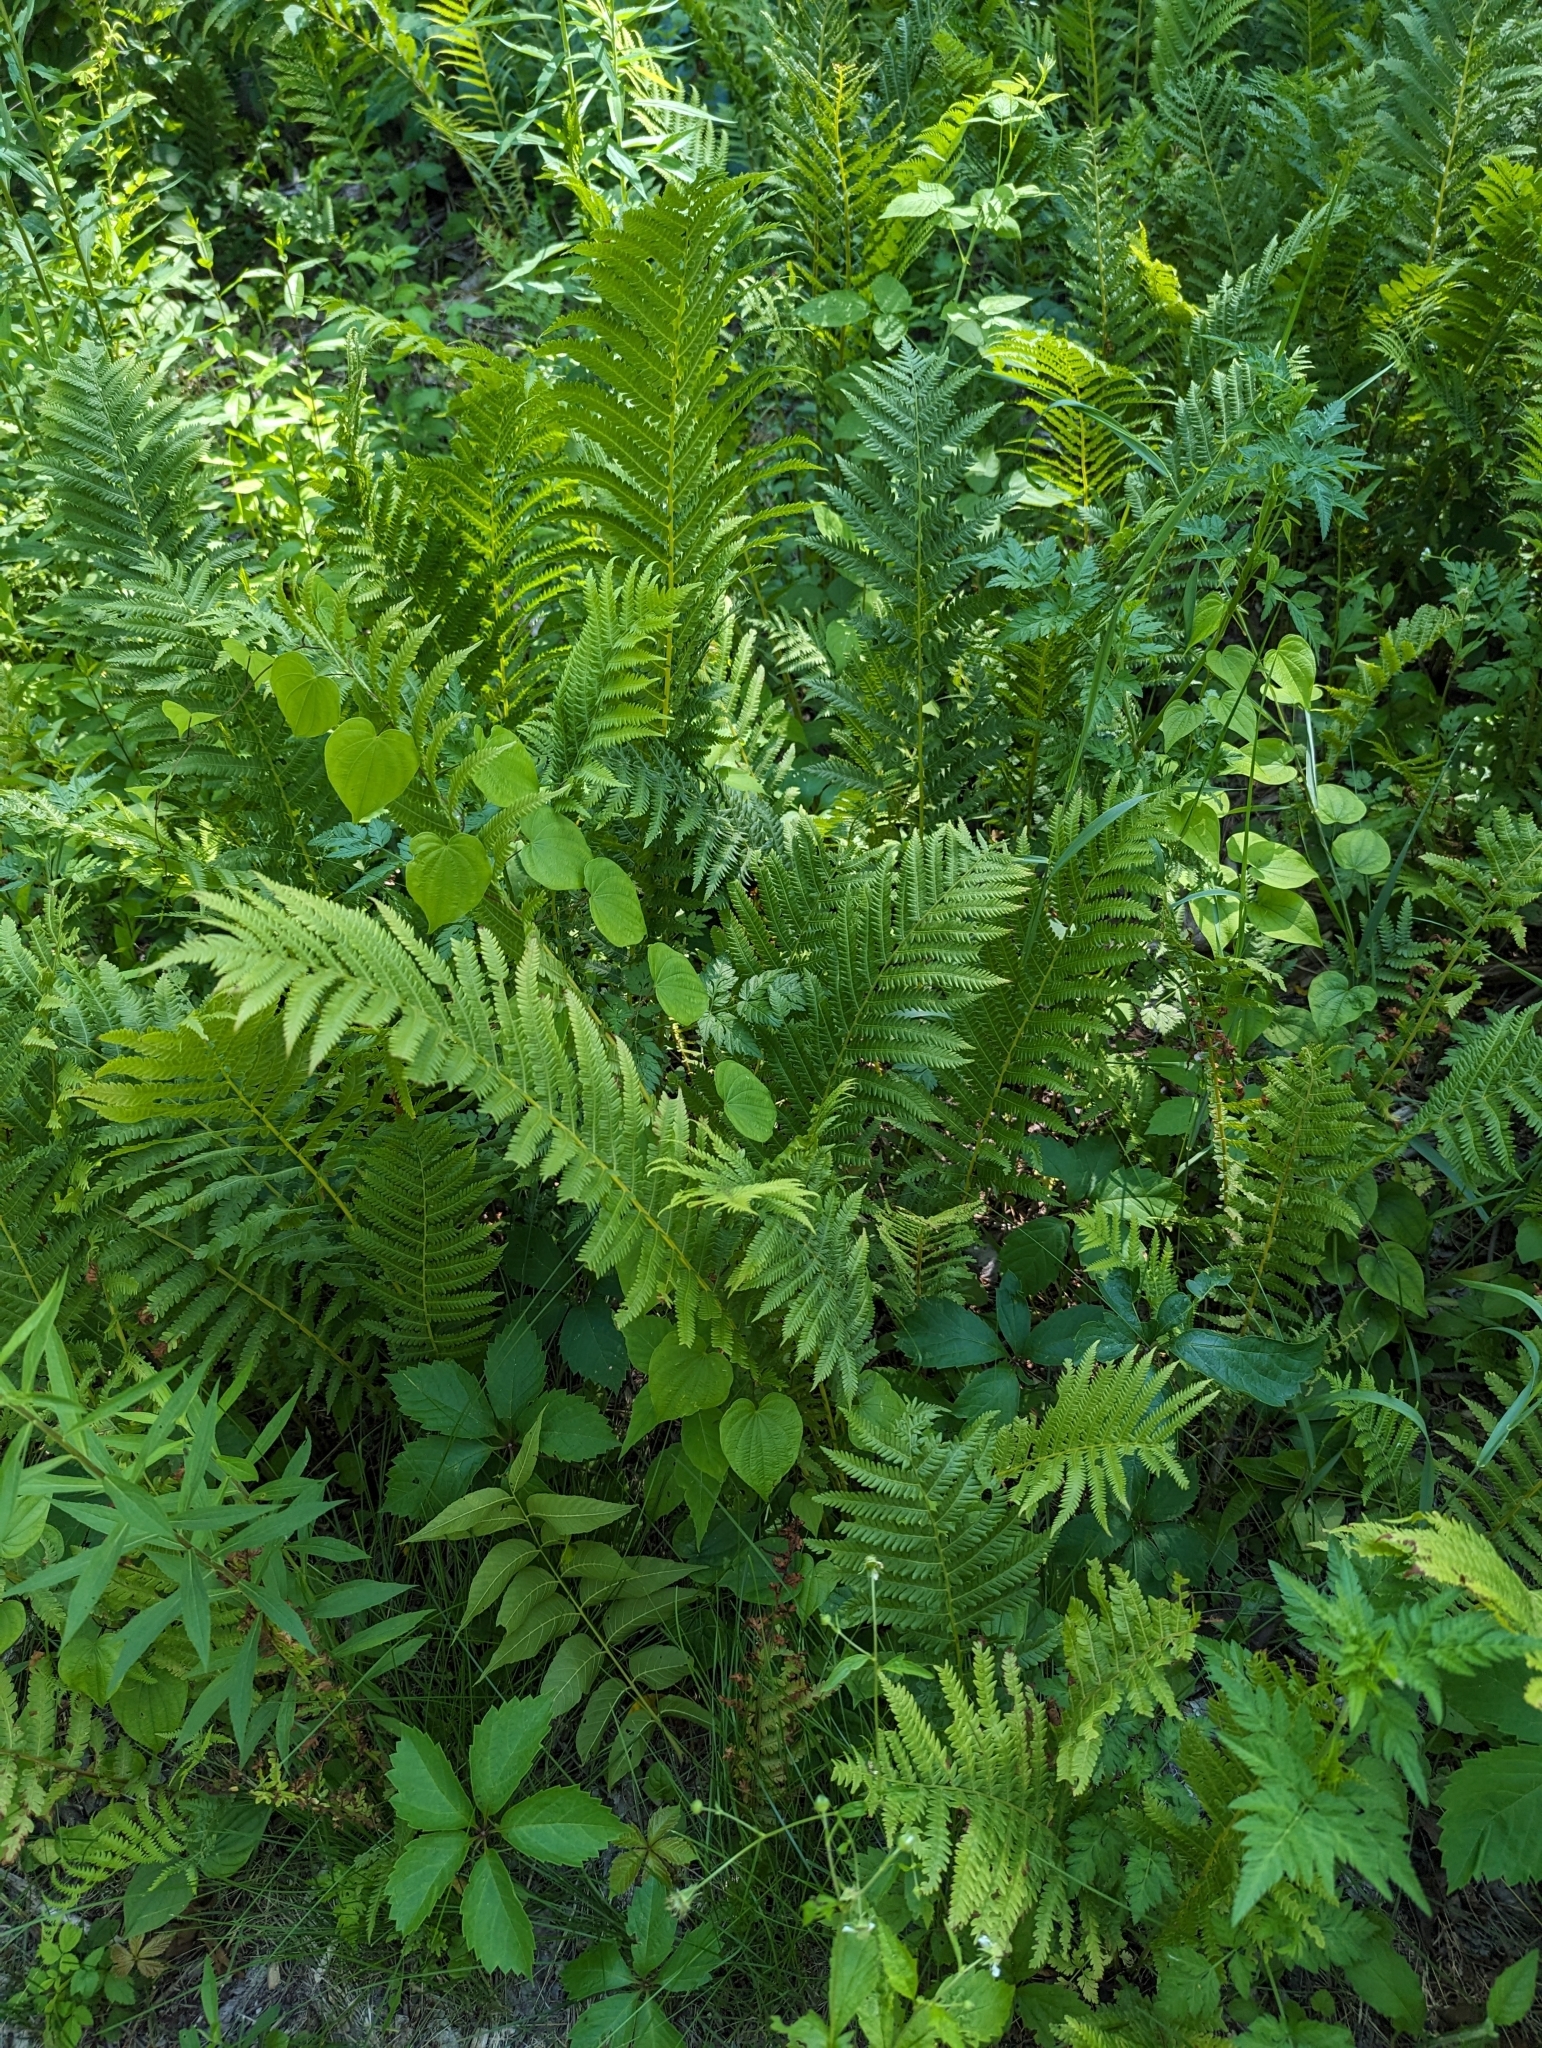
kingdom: Plantae
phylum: Tracheophyta
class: Polypodiopsida
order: Polypodiales
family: Onocleaceae
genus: Matteuccia
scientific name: Matteuccia struthiopteris
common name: Ostrich fern
